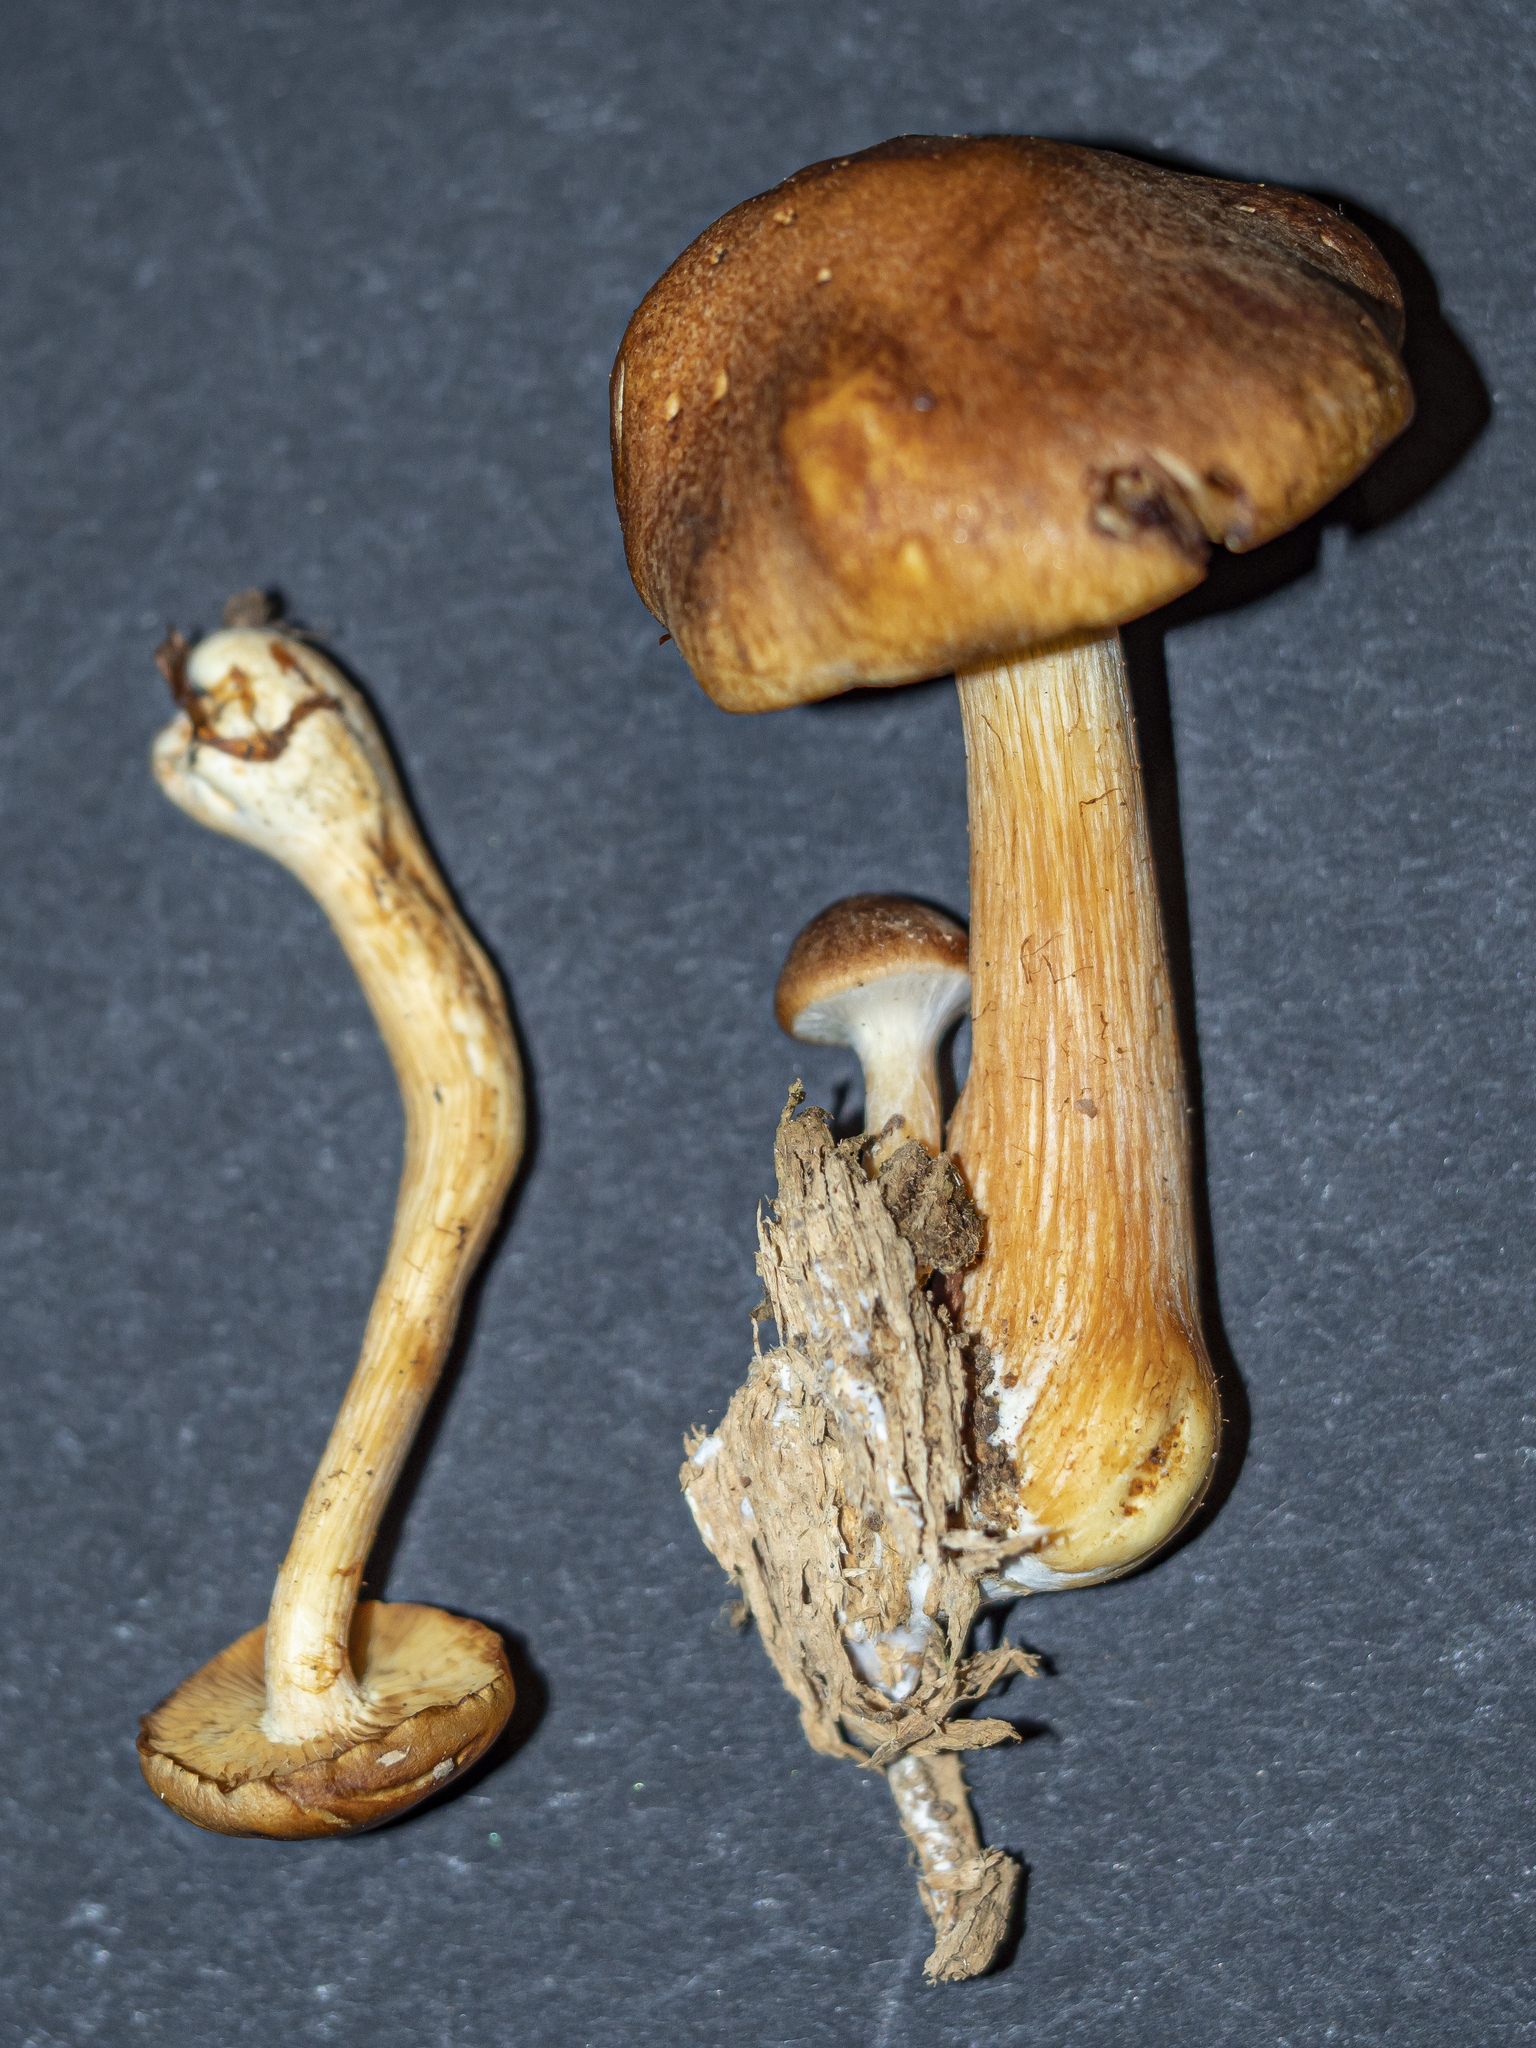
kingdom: Fungi
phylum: Basidiomycota
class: Agaricomycetes
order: Agaricales
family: Hymenogastraceae
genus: Gymnopilus
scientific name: Gymnopilus penetrans
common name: Common rustgill
